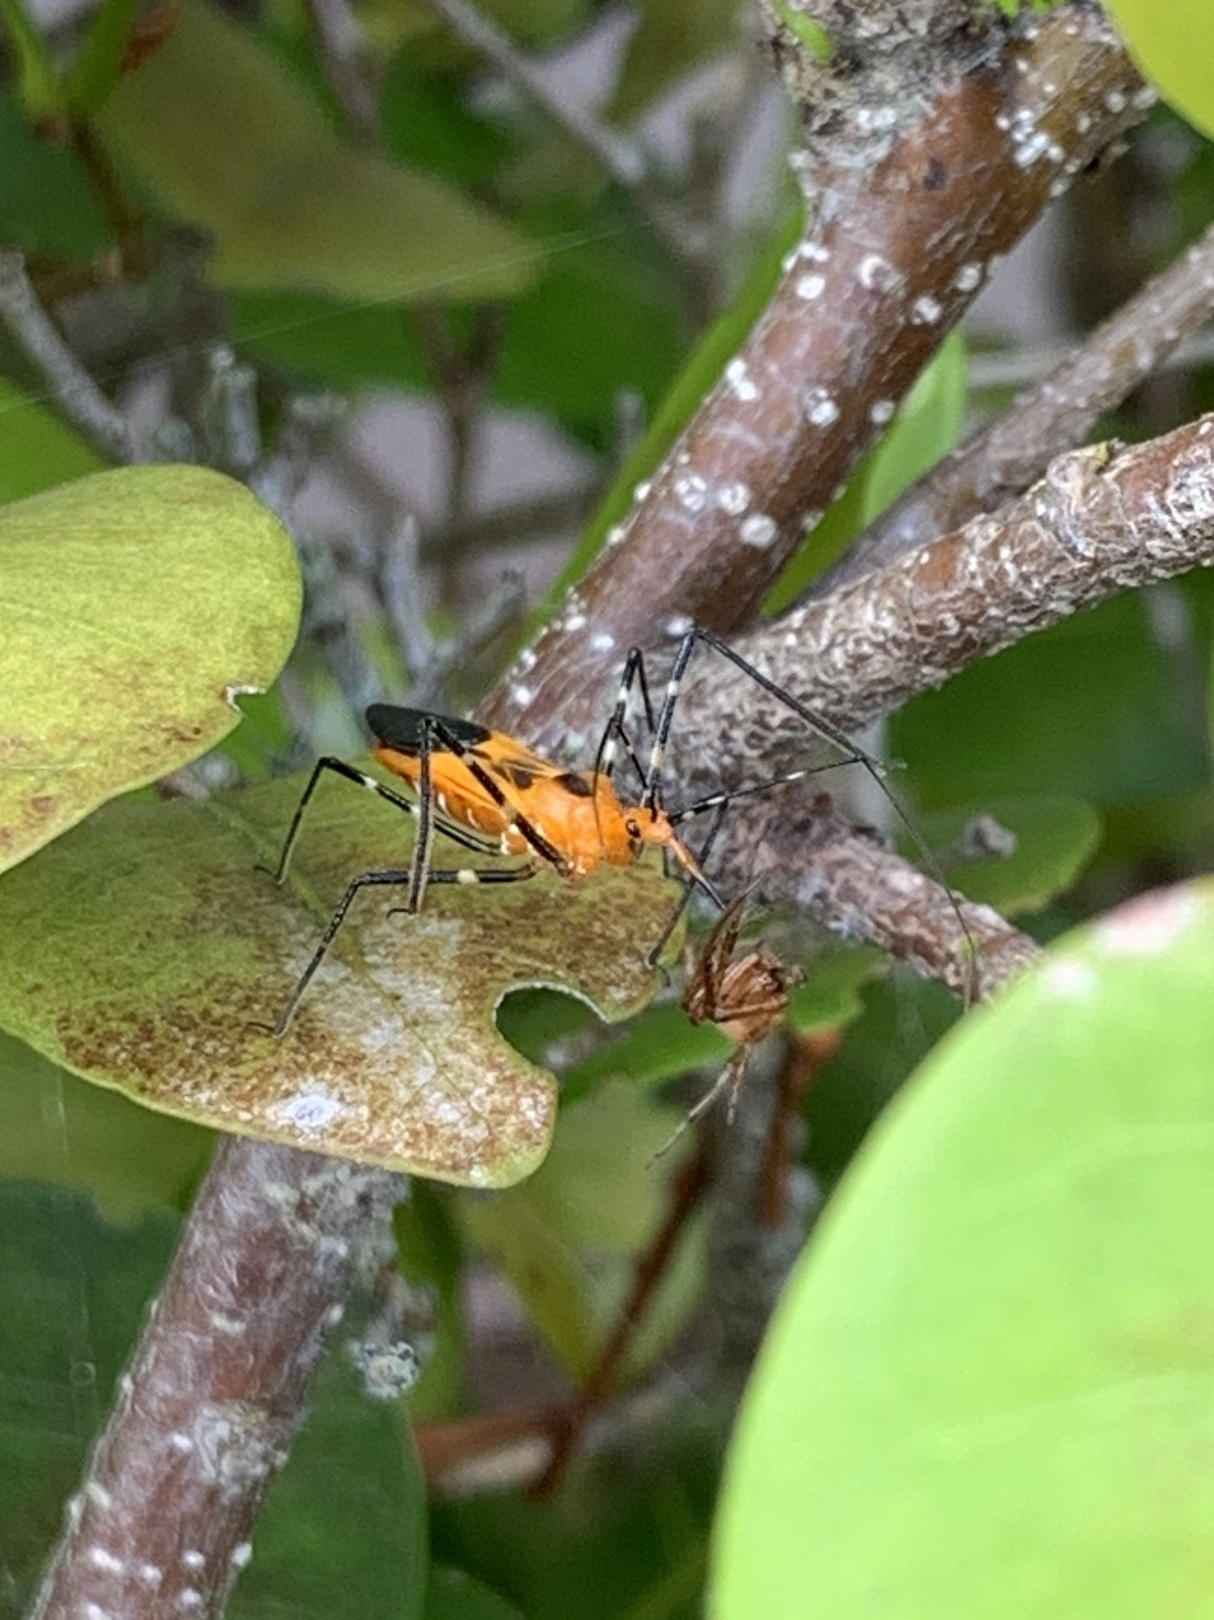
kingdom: Animalia
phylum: Arthropoda
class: Insecta
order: Hemiptera
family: Reduviidae
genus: Zelus
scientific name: Zelus longipes
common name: Milkweed assassin bug
